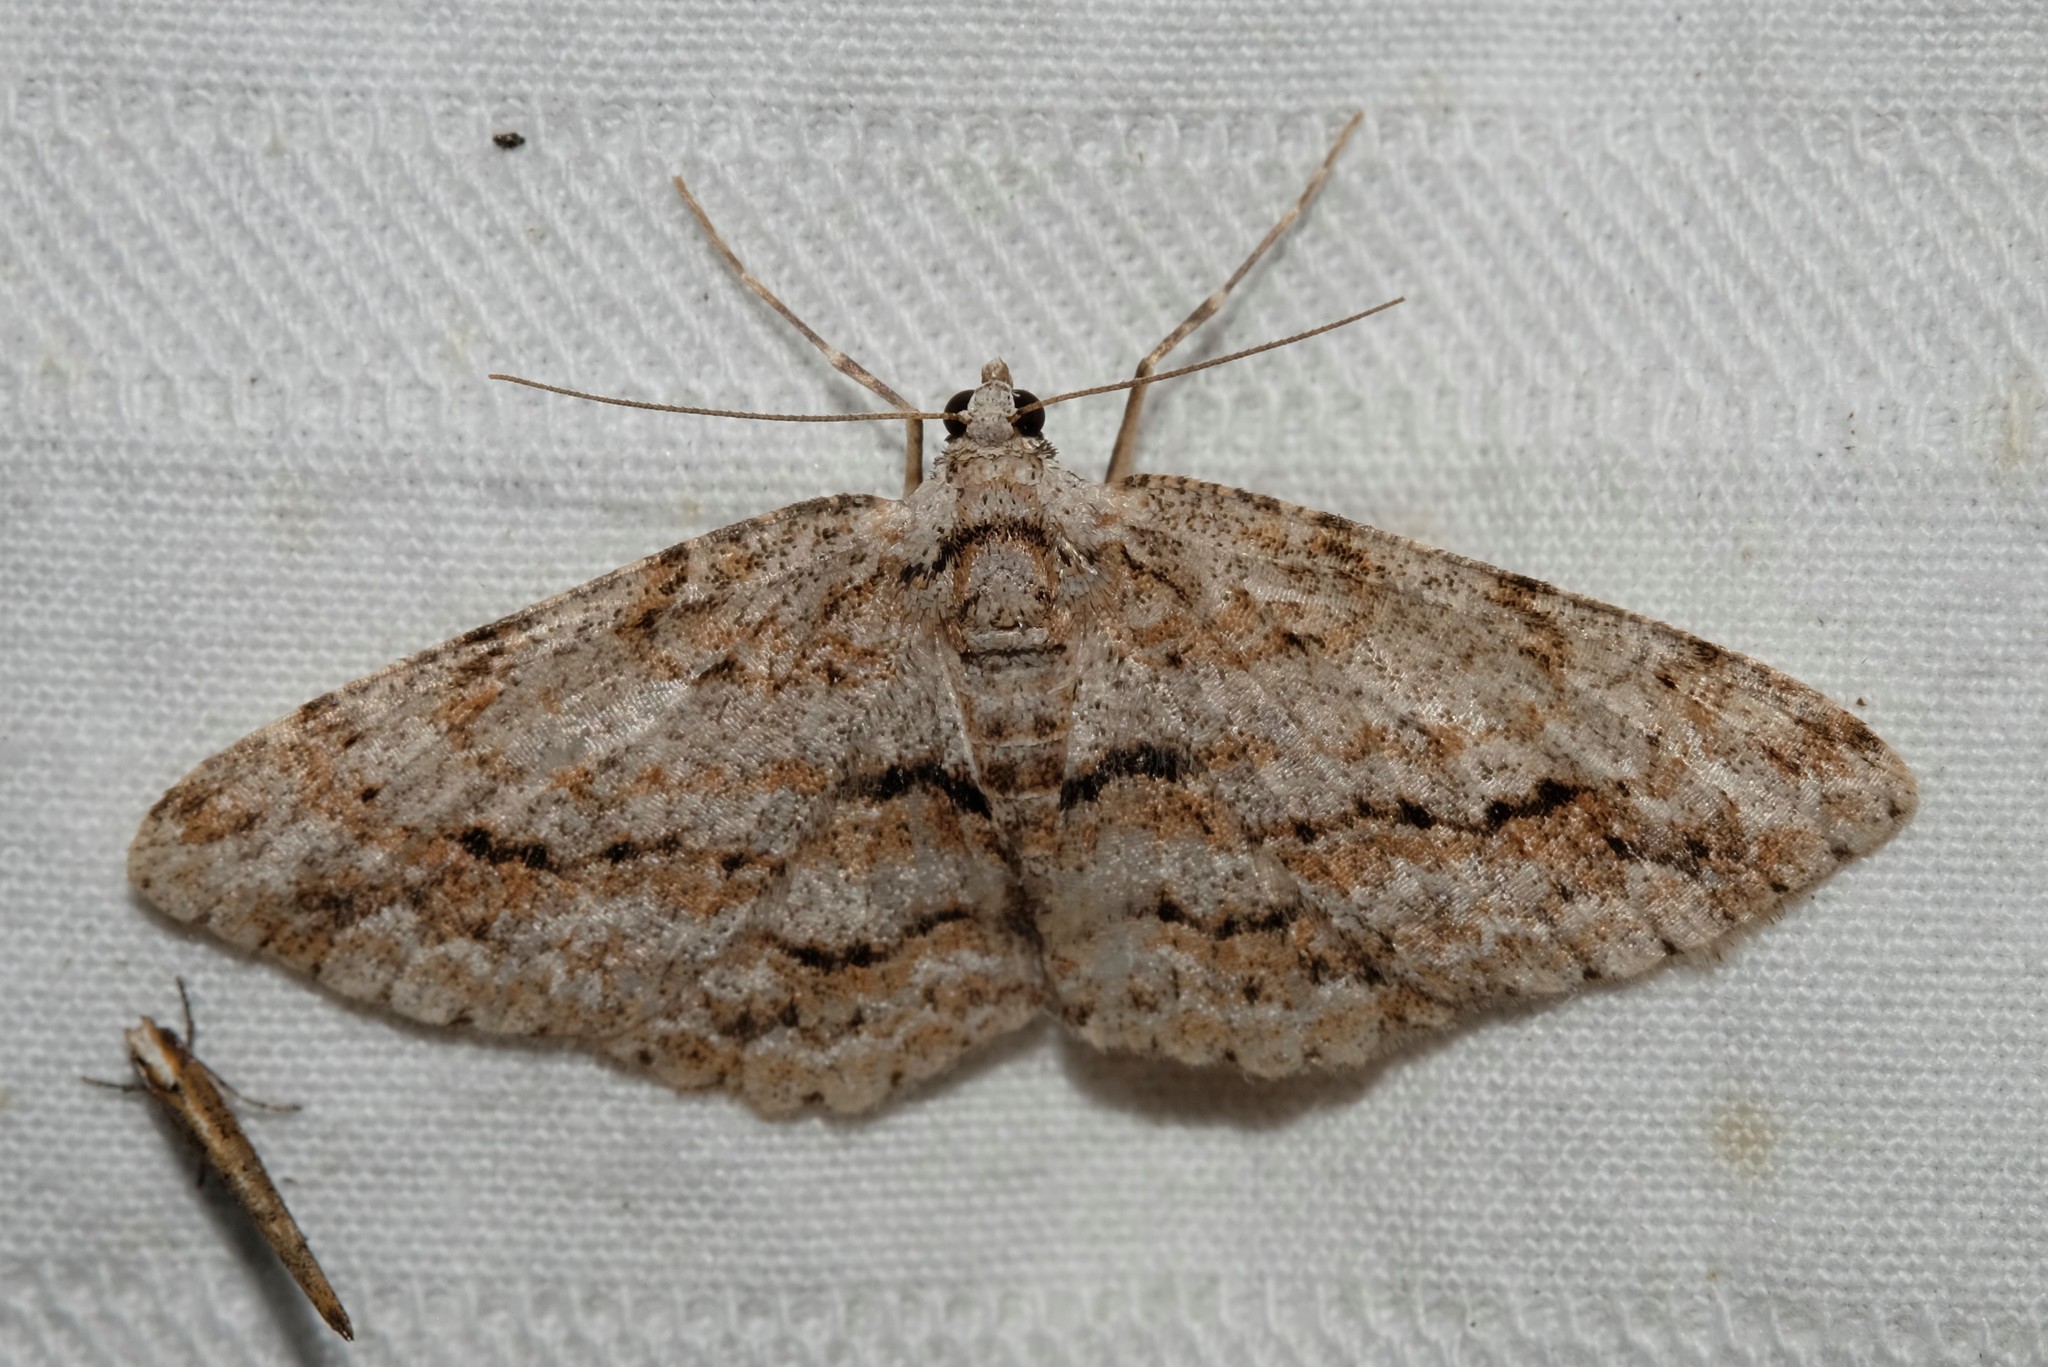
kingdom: Animalia
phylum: Arthropoda
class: Insecta
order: Lepidoptera
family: Geometridae
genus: Didymoctenia
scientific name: Didymoctenia exsuperata
